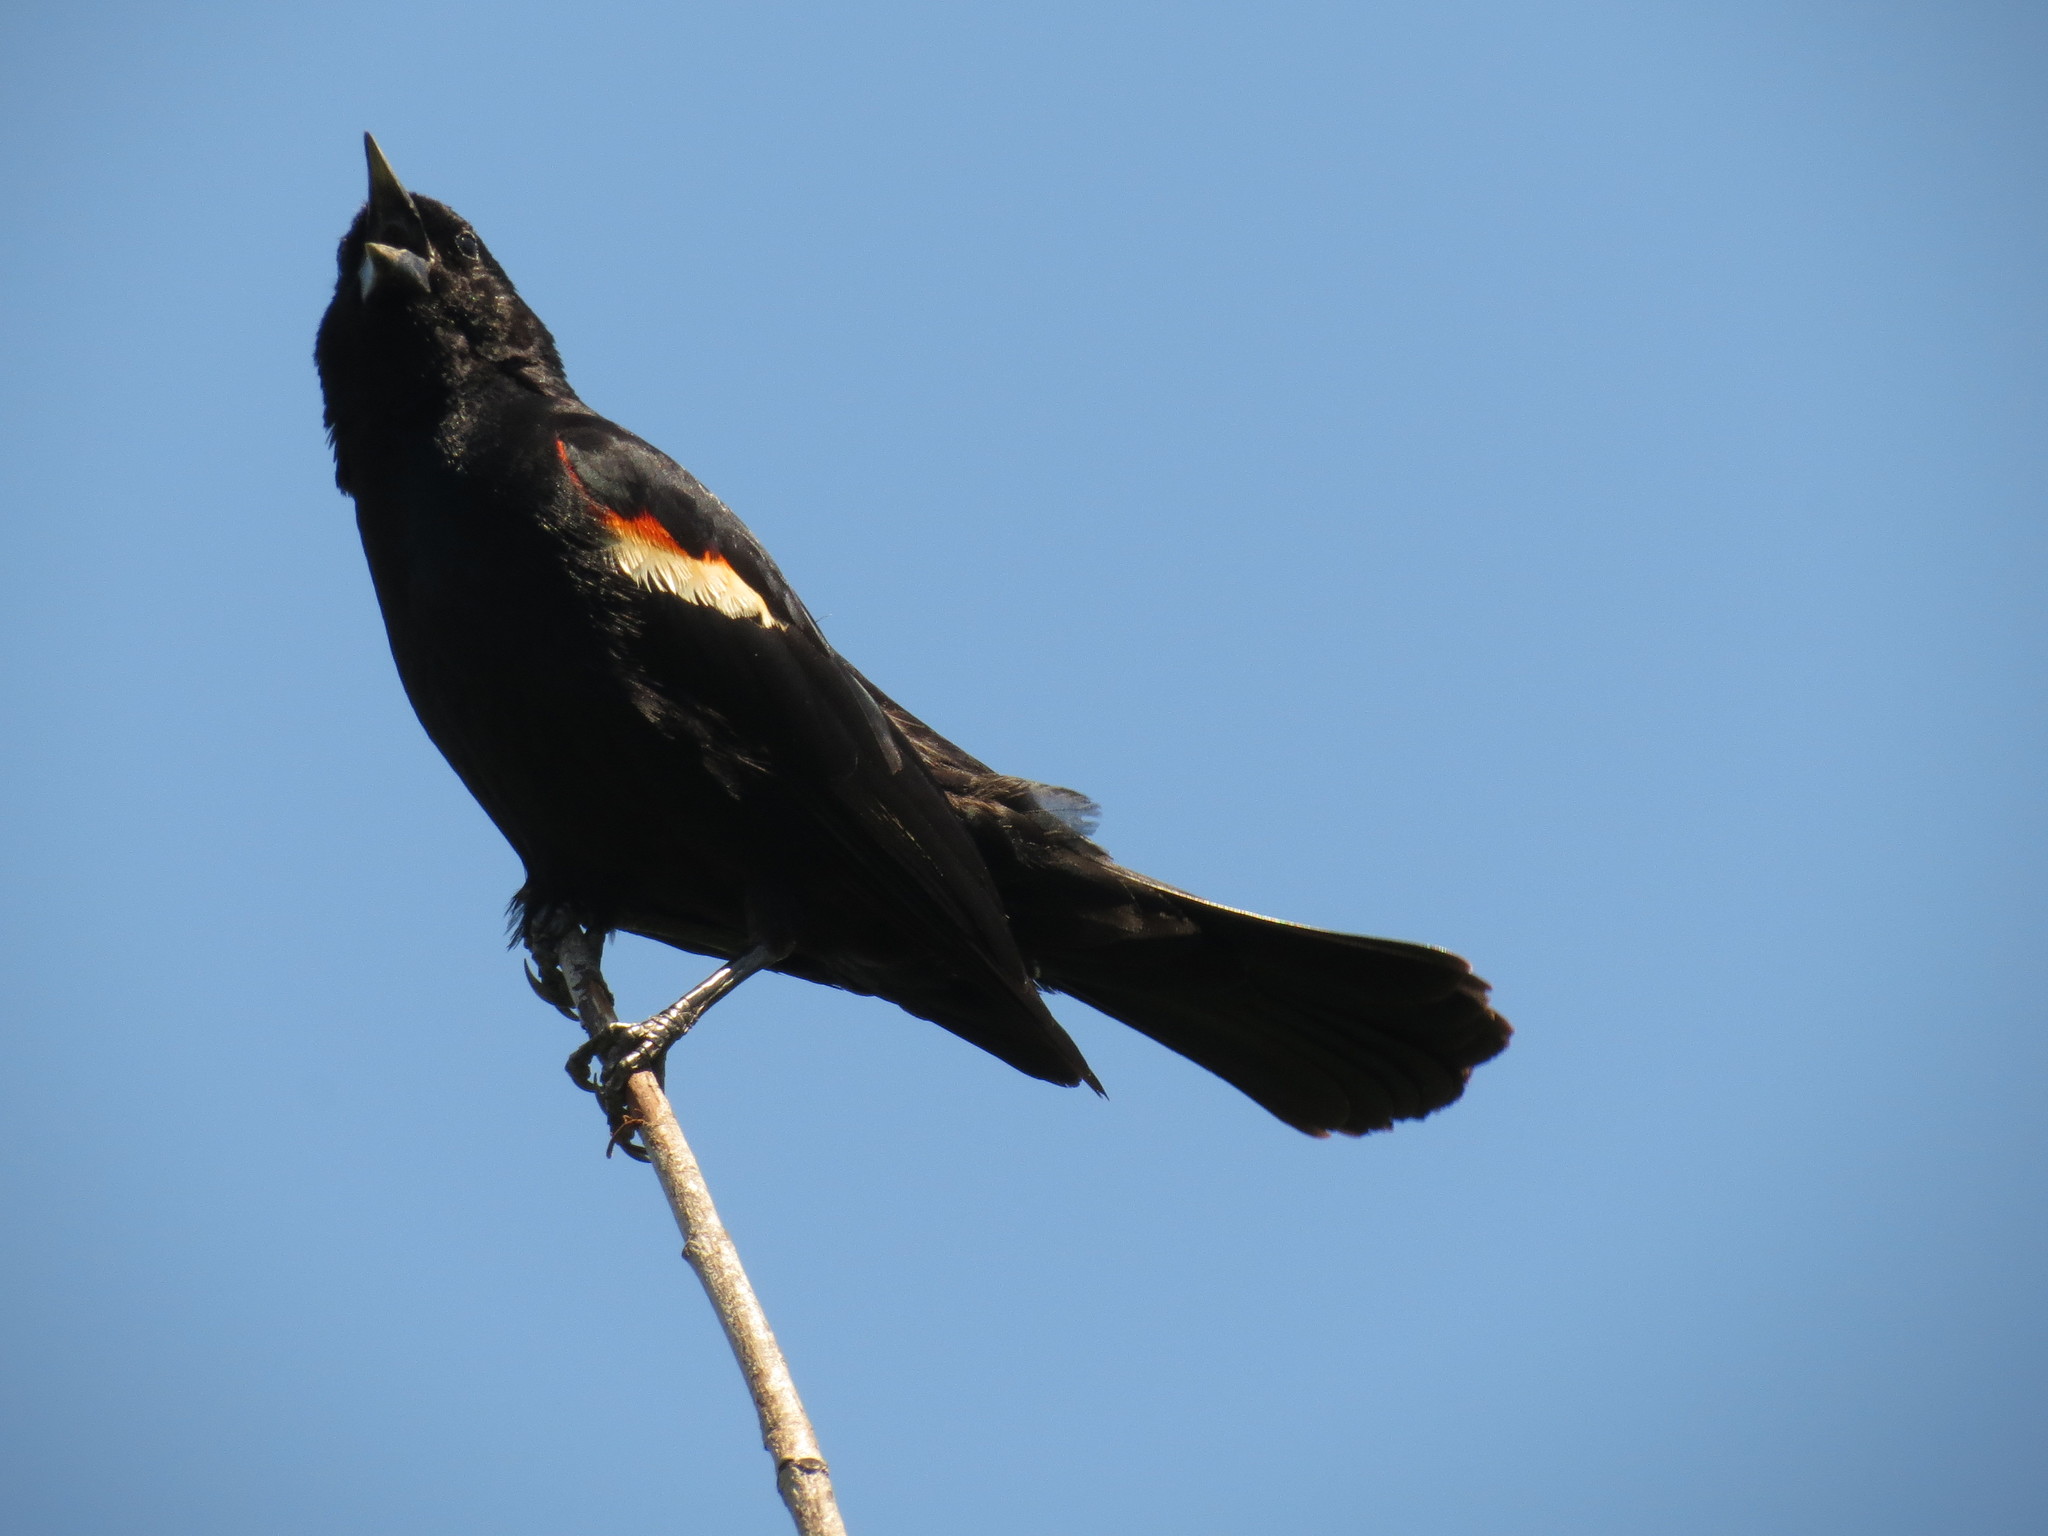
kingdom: Animalia
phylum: Chordata
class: Aves
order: Passeriformes
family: Icteridae
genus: Agelaius
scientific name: Agelaius phoeniceus
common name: Red-winged blackbird
